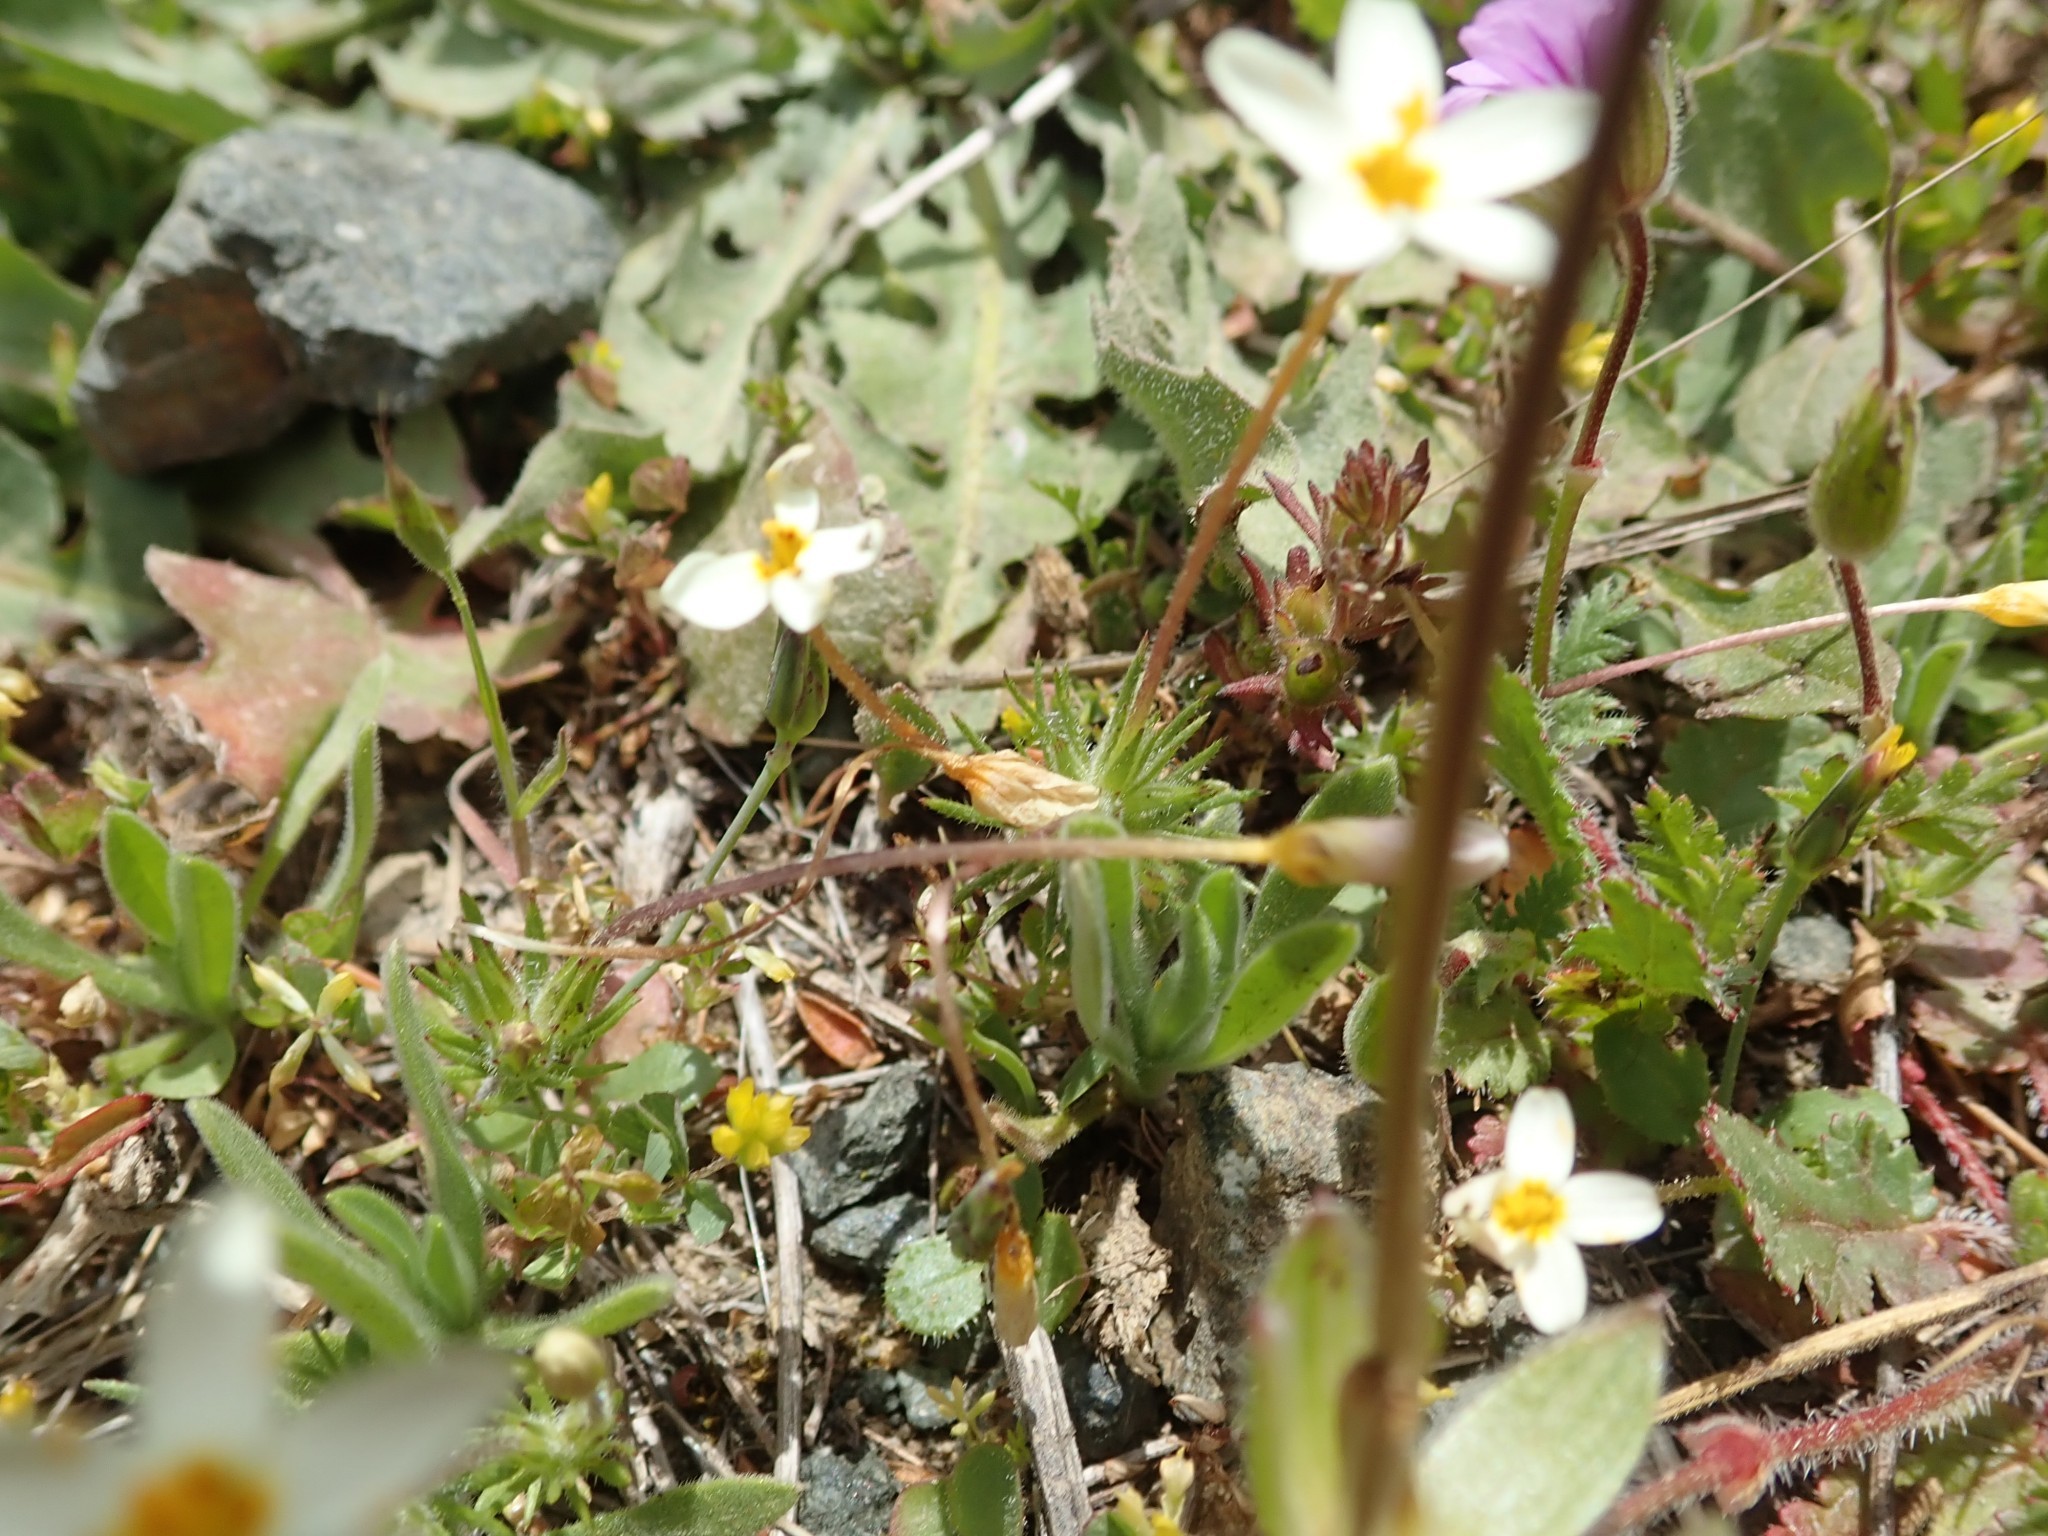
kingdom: Plantae
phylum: Tracheophyta
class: Magnoliopsida
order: Ericales
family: Polemoniaceae
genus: Leptosiphon
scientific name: Leptosiphon parviflorus
